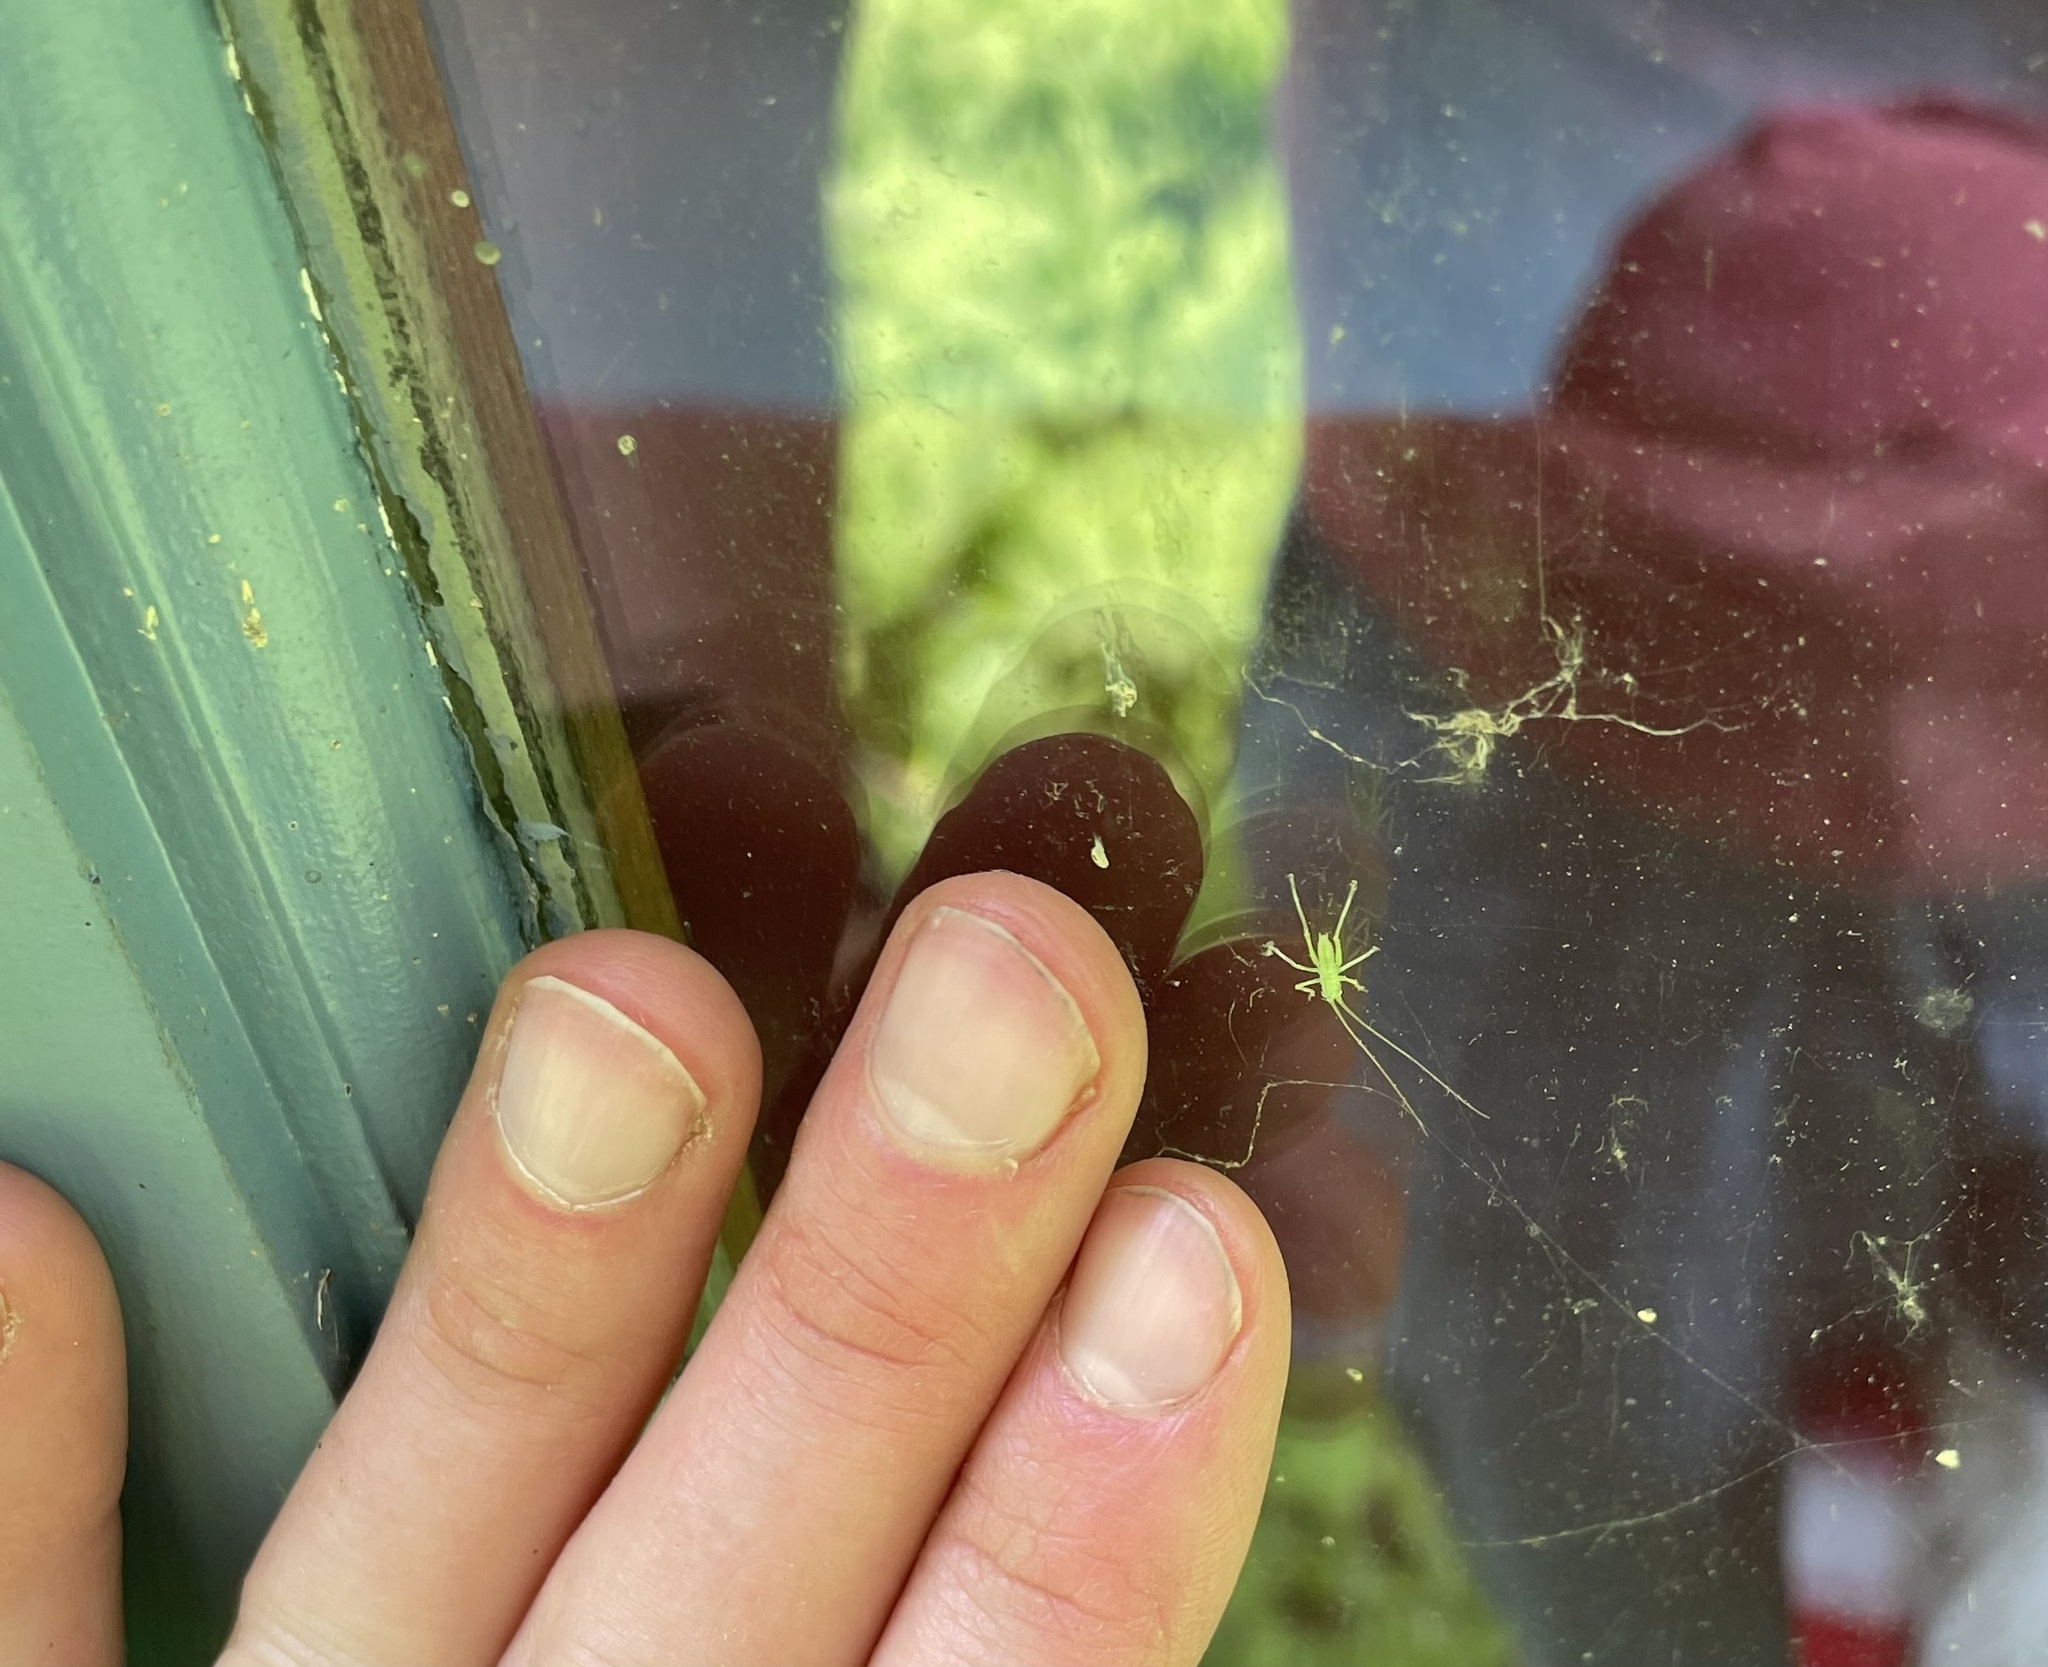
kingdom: Animalia
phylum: Arthropoda
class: Insecta
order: Orthoptera
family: Tettigoniidae
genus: Meconema
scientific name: Meconema thalassinum
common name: Oak bush-cricket
